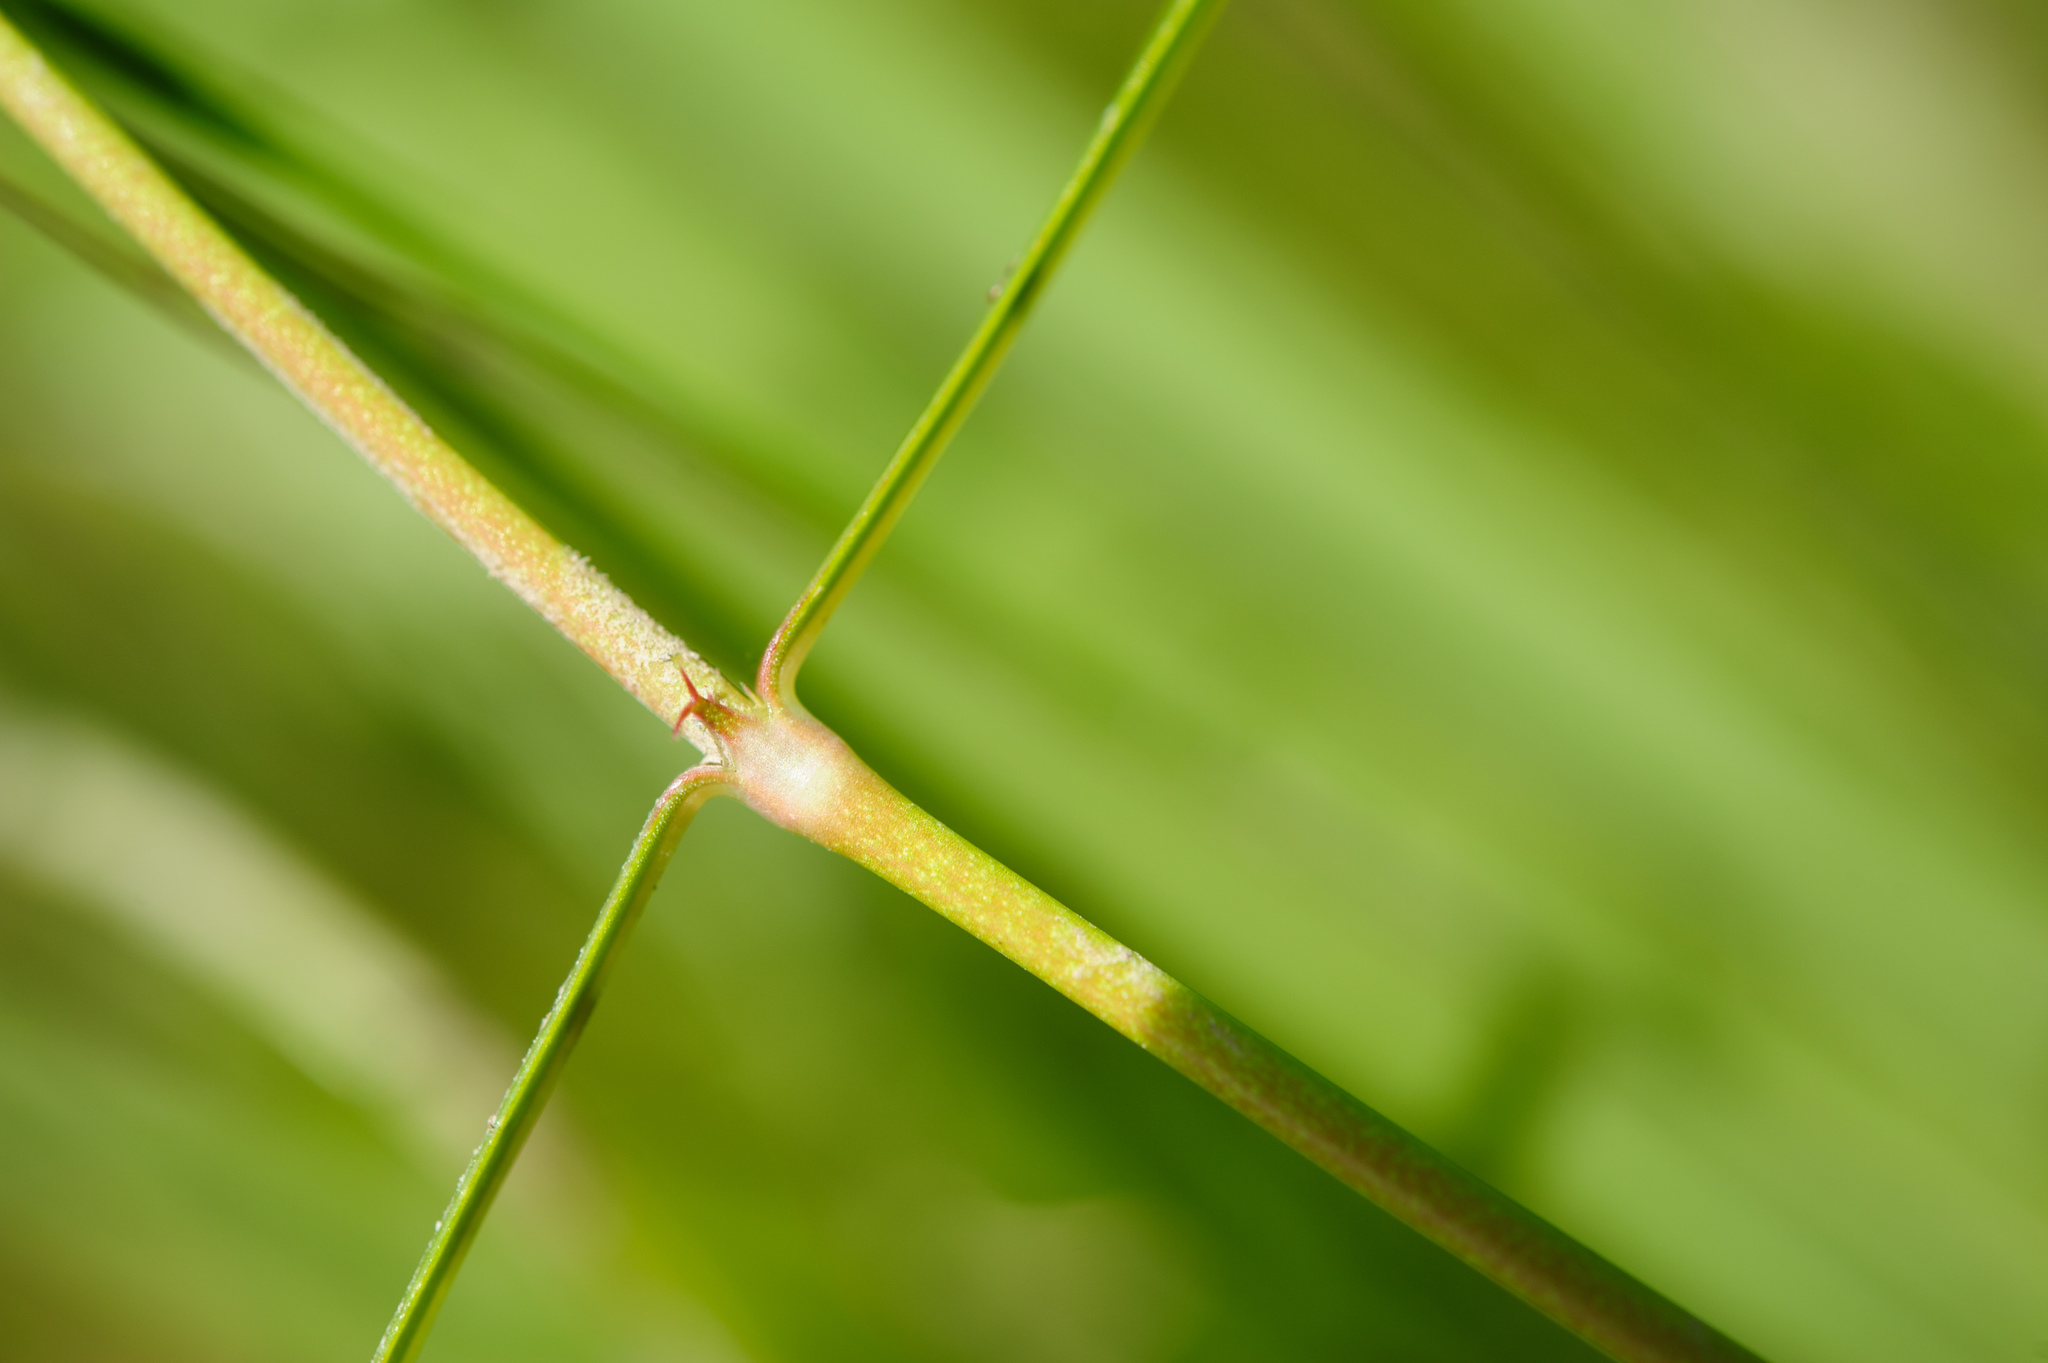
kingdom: Plantae
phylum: Tracheophyta
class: Magnoliopsida
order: Gentianales
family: Rubiaceae
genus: Scleromitrion
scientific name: Scleromitrion brachypodum
